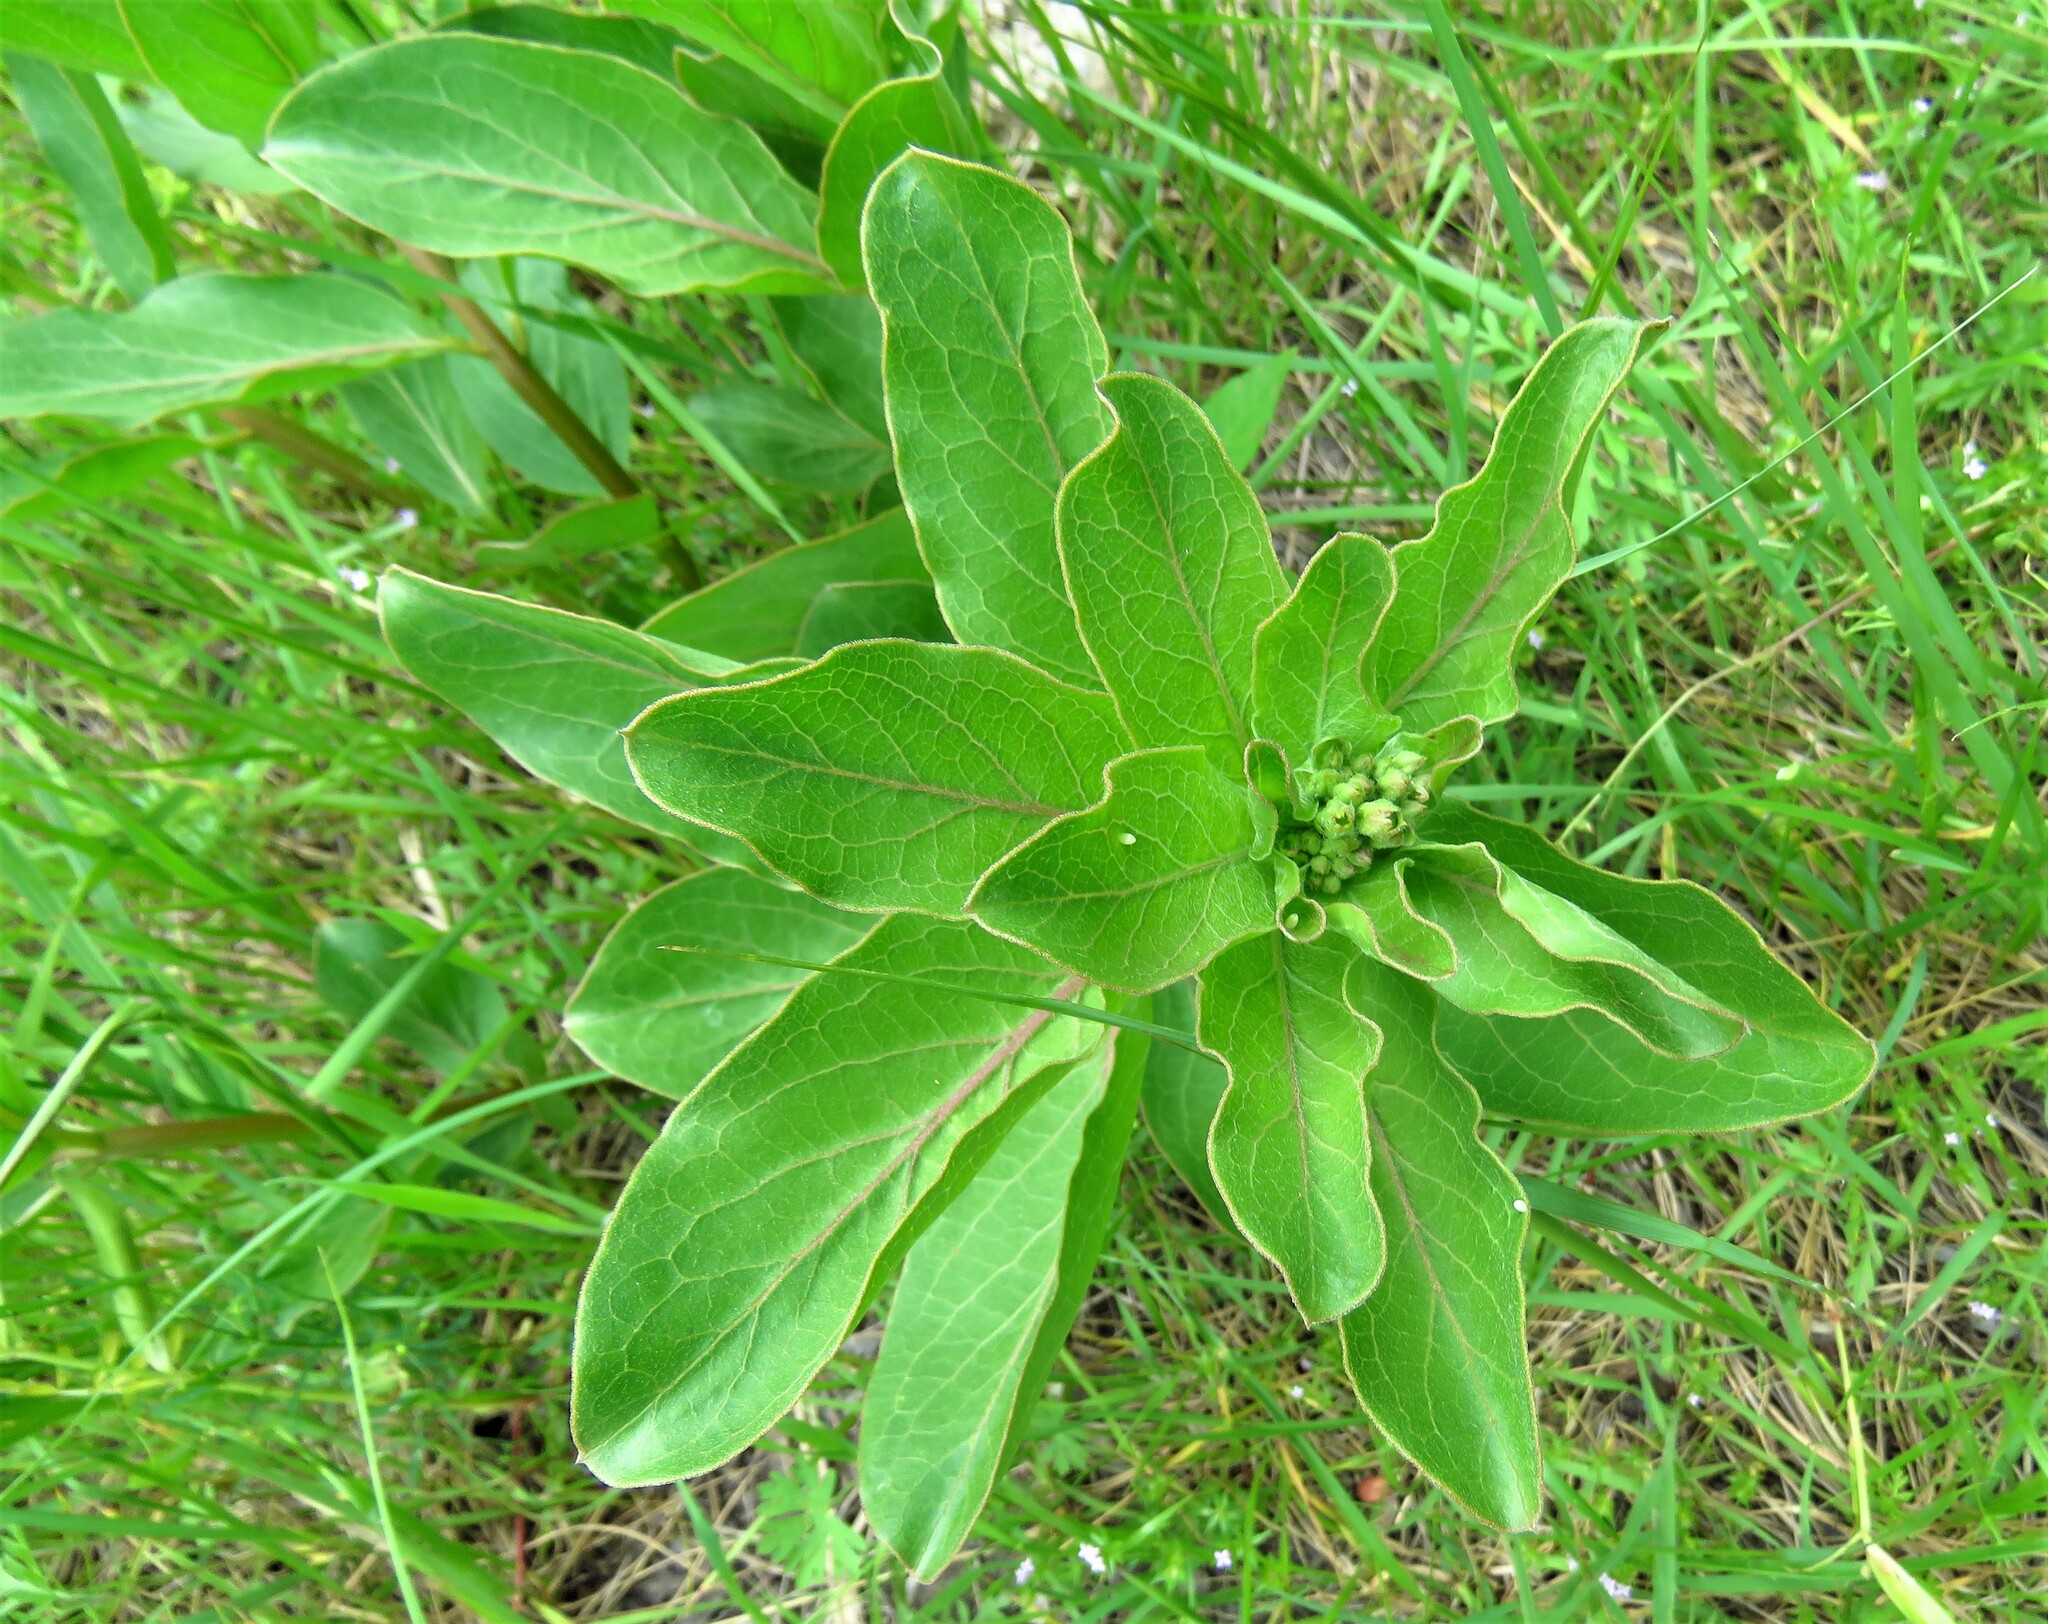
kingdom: Plantae
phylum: Tracheophyta
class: Magnoliopsida
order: Gentianales
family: Apocynaceae
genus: Asclepias
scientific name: Asclepias viridis
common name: Antelope-horns
